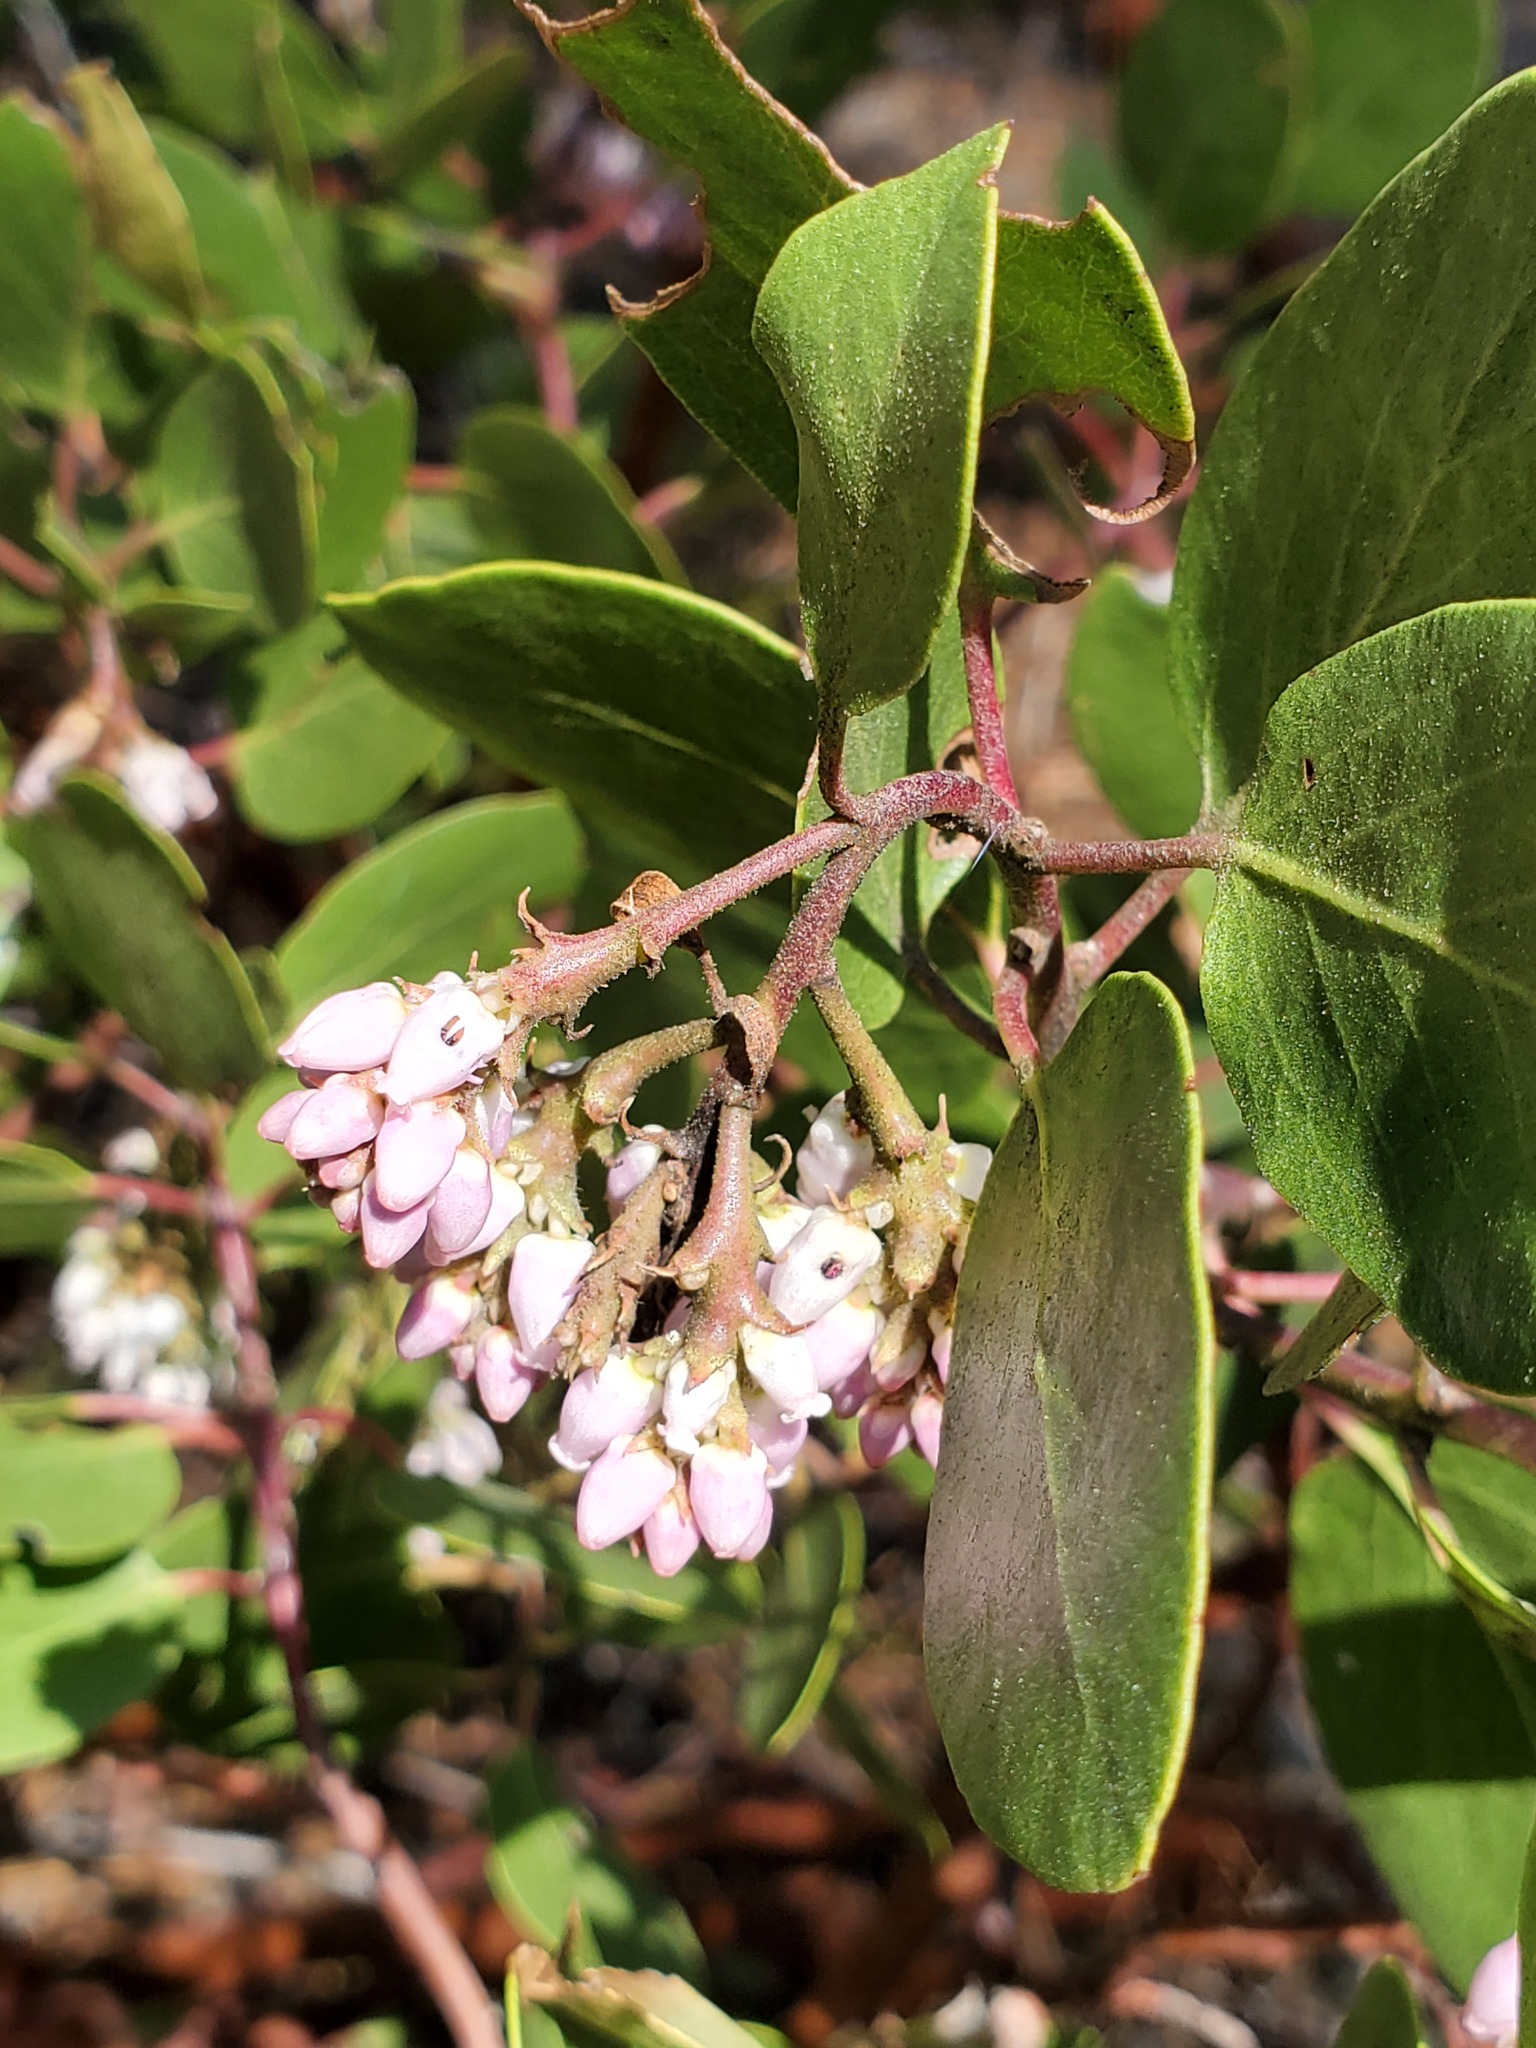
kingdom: Plantae
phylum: Tracheophyta
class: Magnoliopsida
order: Ericales
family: Ericaceae
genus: Arctostaphylos
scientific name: Arctostaphylos patula
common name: Green-leaf manzanita
